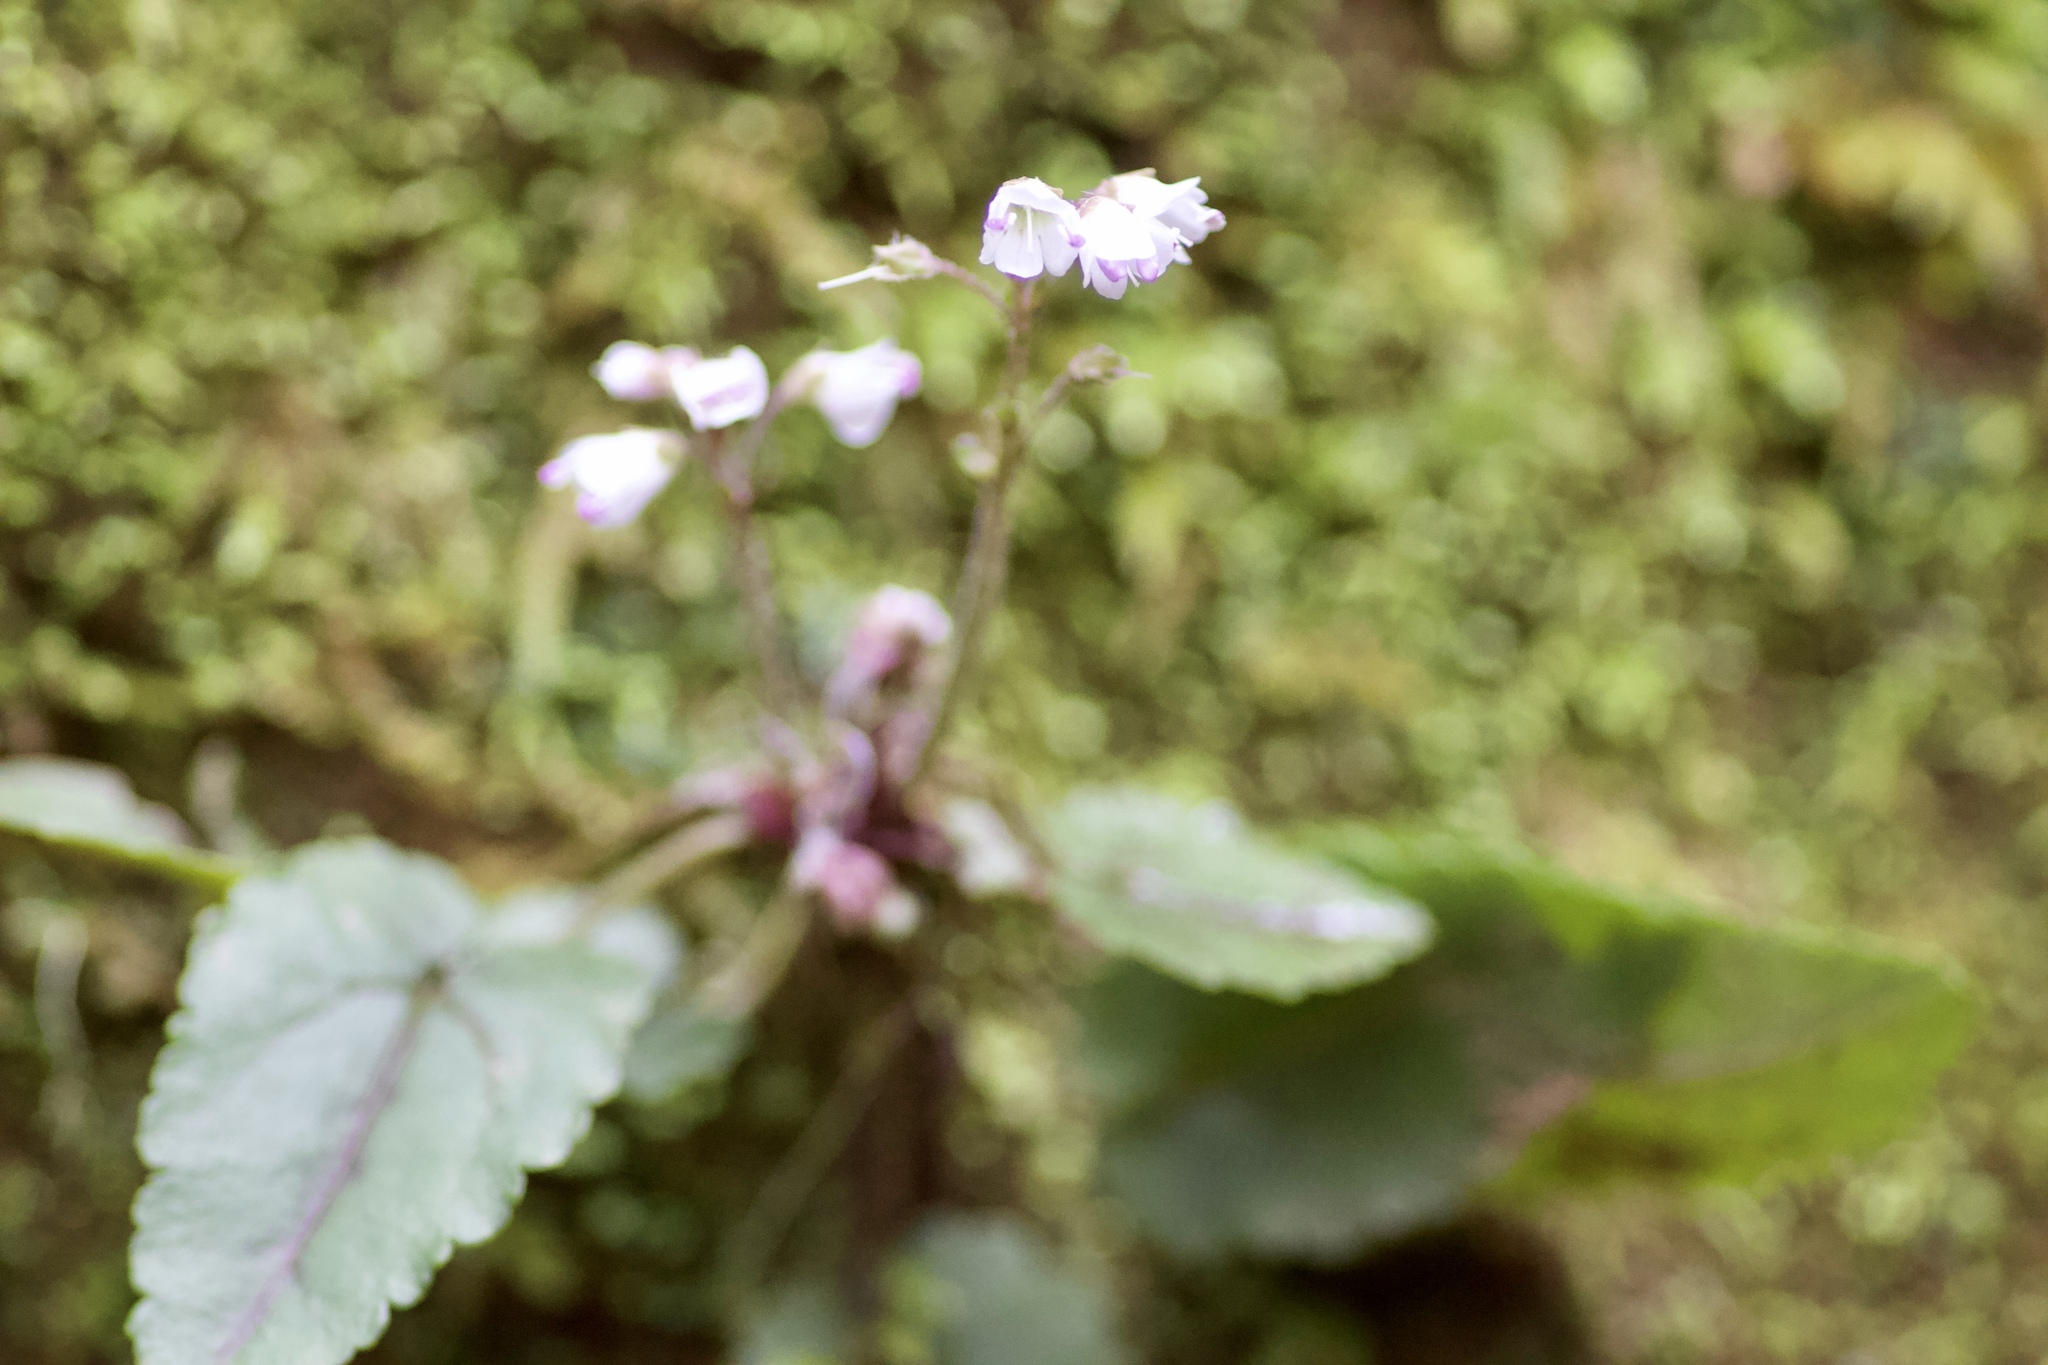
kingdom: Plantae
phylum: Tracheophyta
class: Magnoliopsida
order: Lamiales
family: Plantaginaceae
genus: Synthyris
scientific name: Synthyris cordata
